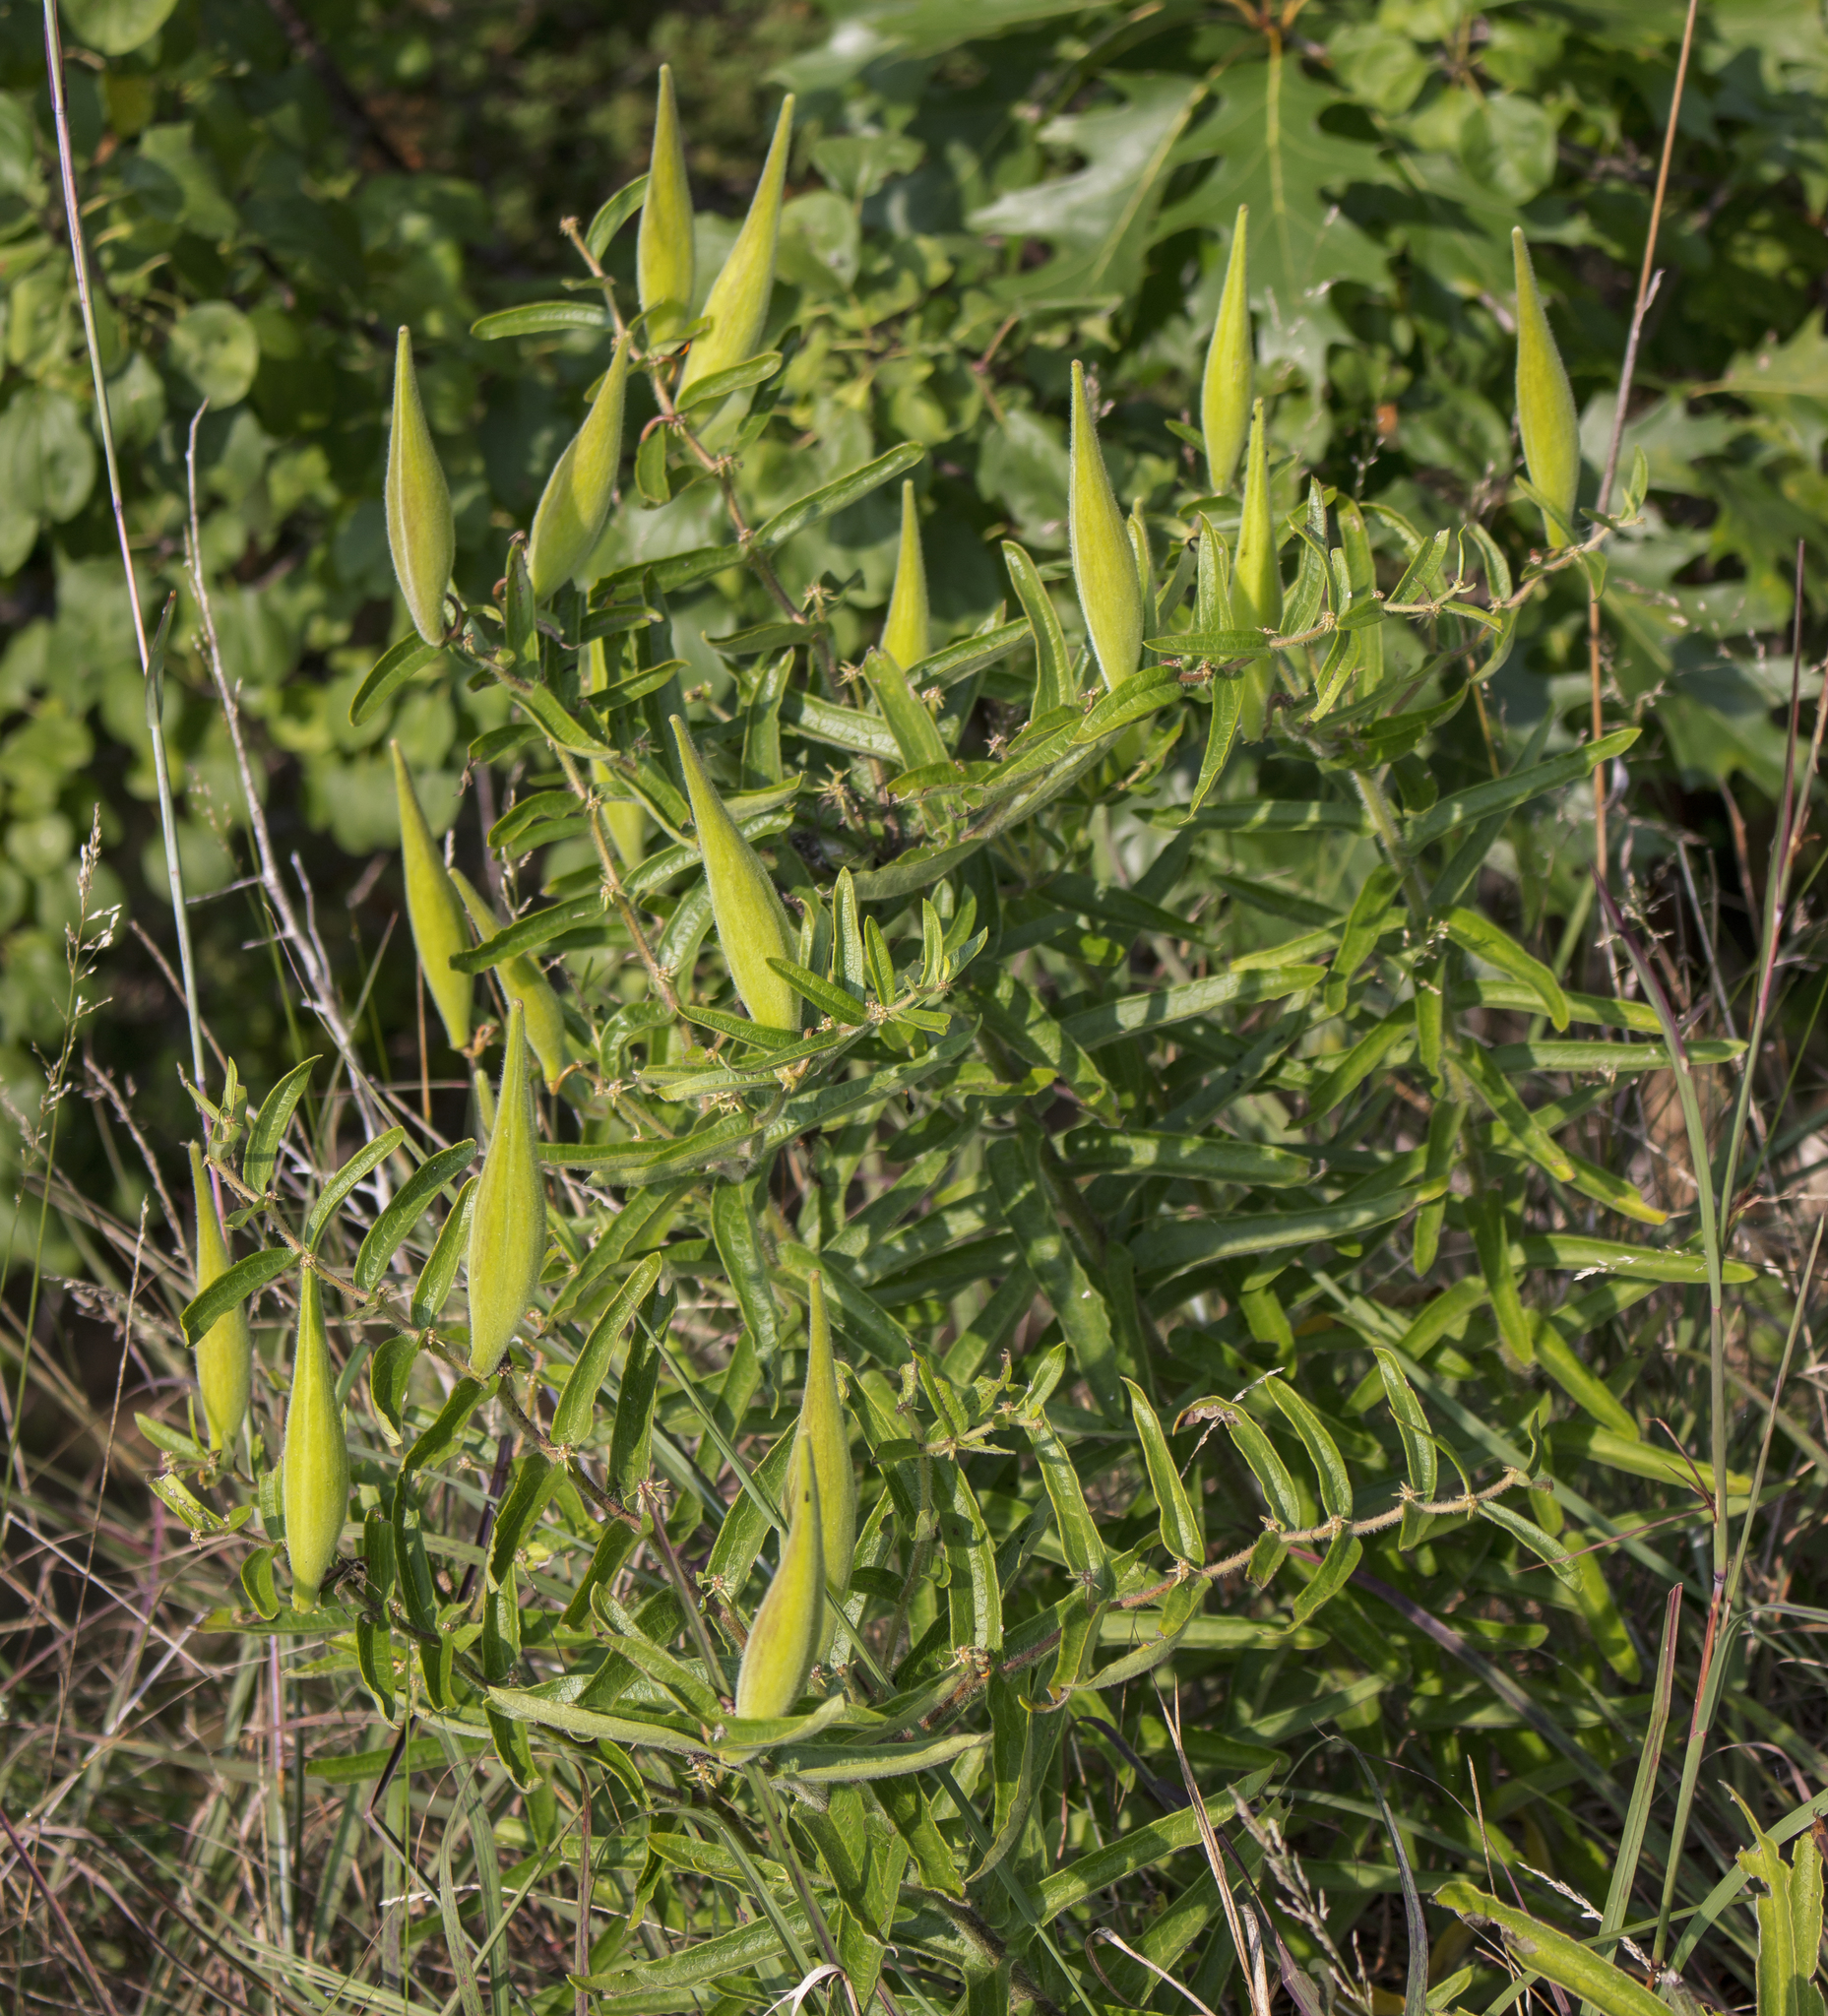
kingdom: Plantae
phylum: Tracheophyta
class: Magnoliopsida
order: Gentianales
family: Apocynaceae
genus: Asclepias
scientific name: Asclepias tuberosa
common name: Butterfly milkweed
